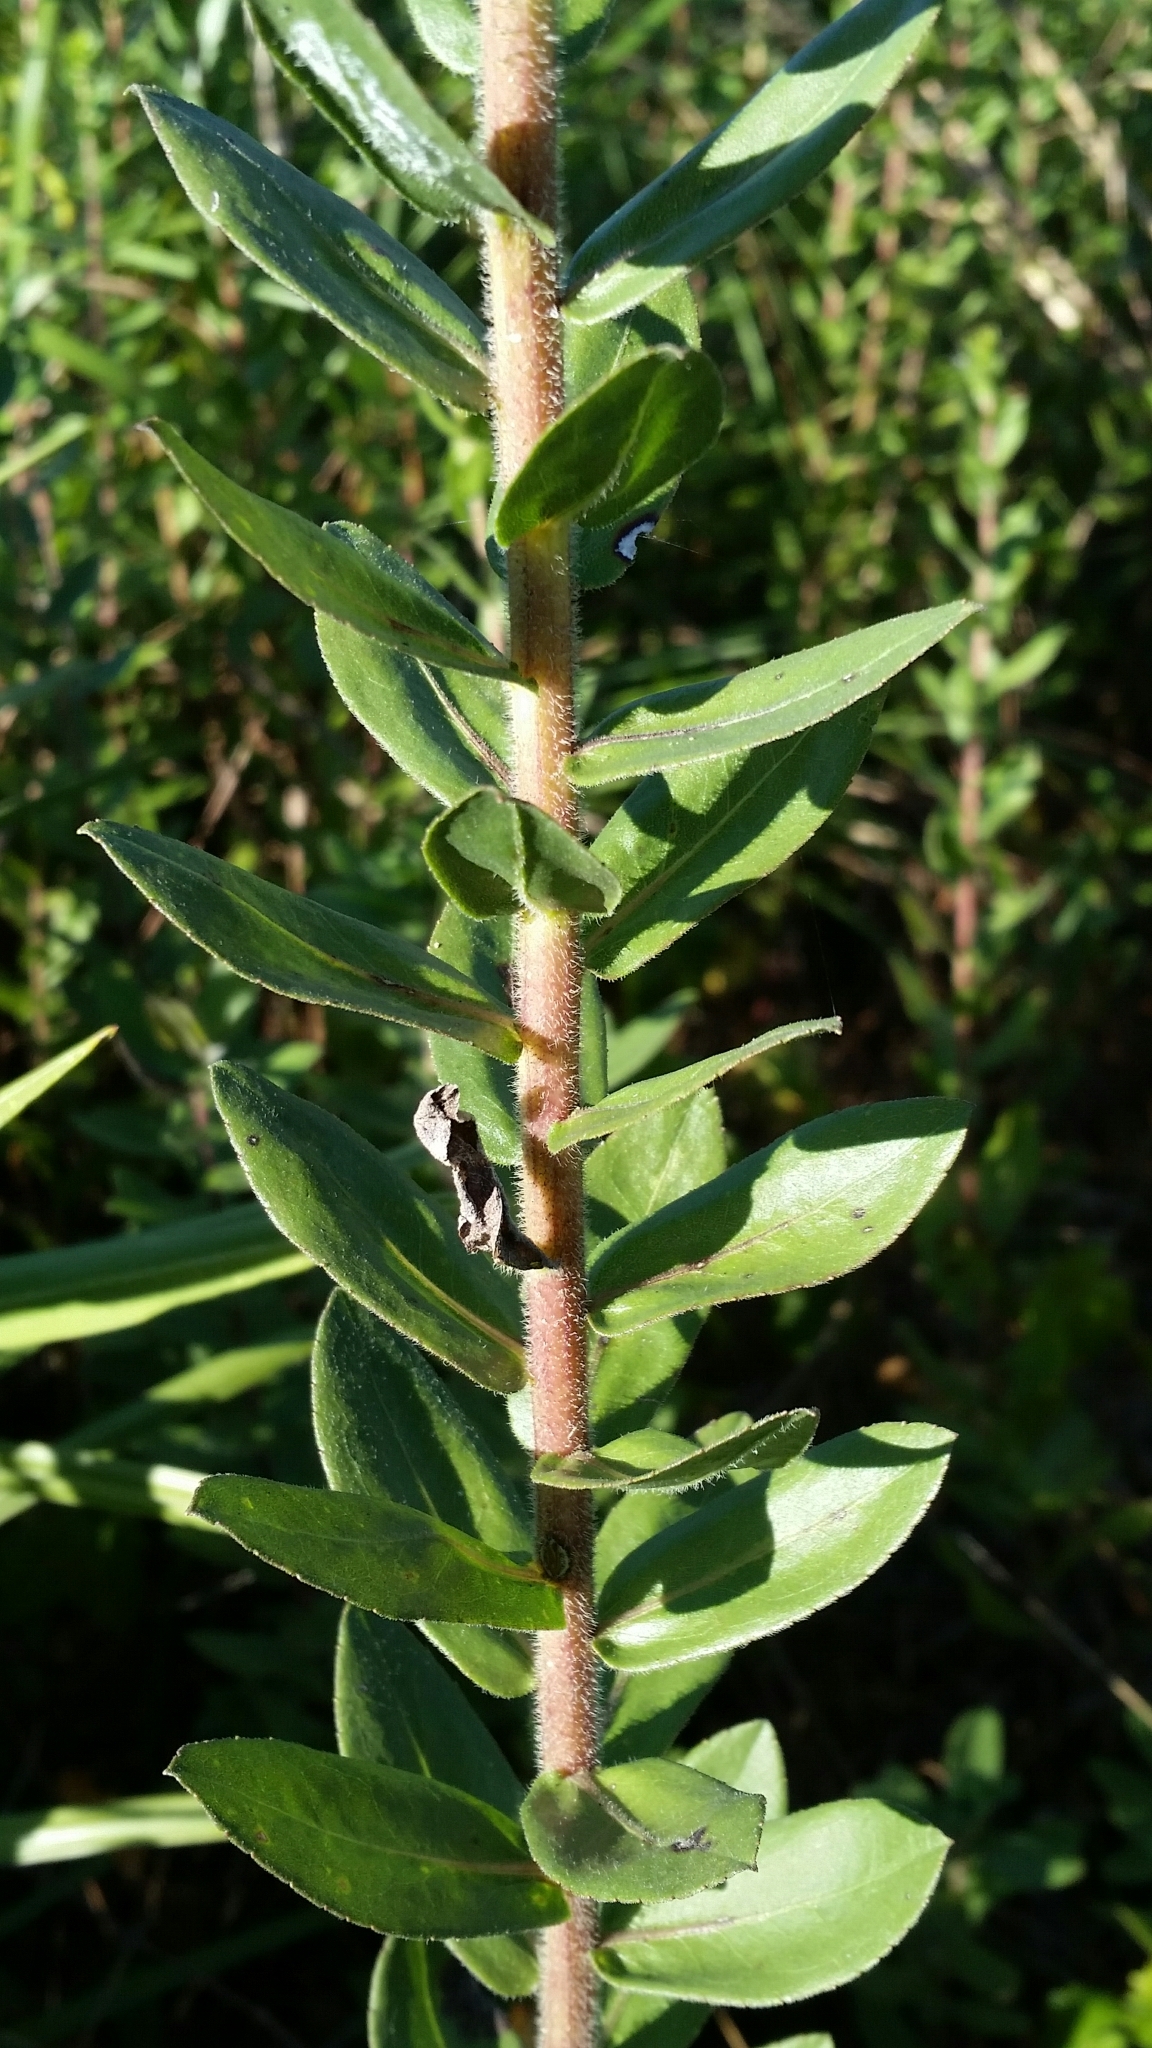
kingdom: Plantae
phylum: Tracheophyta
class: Magnoliopsida
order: Asterales
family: Asteraceae
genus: Solidago
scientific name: Solidago fistulosa
